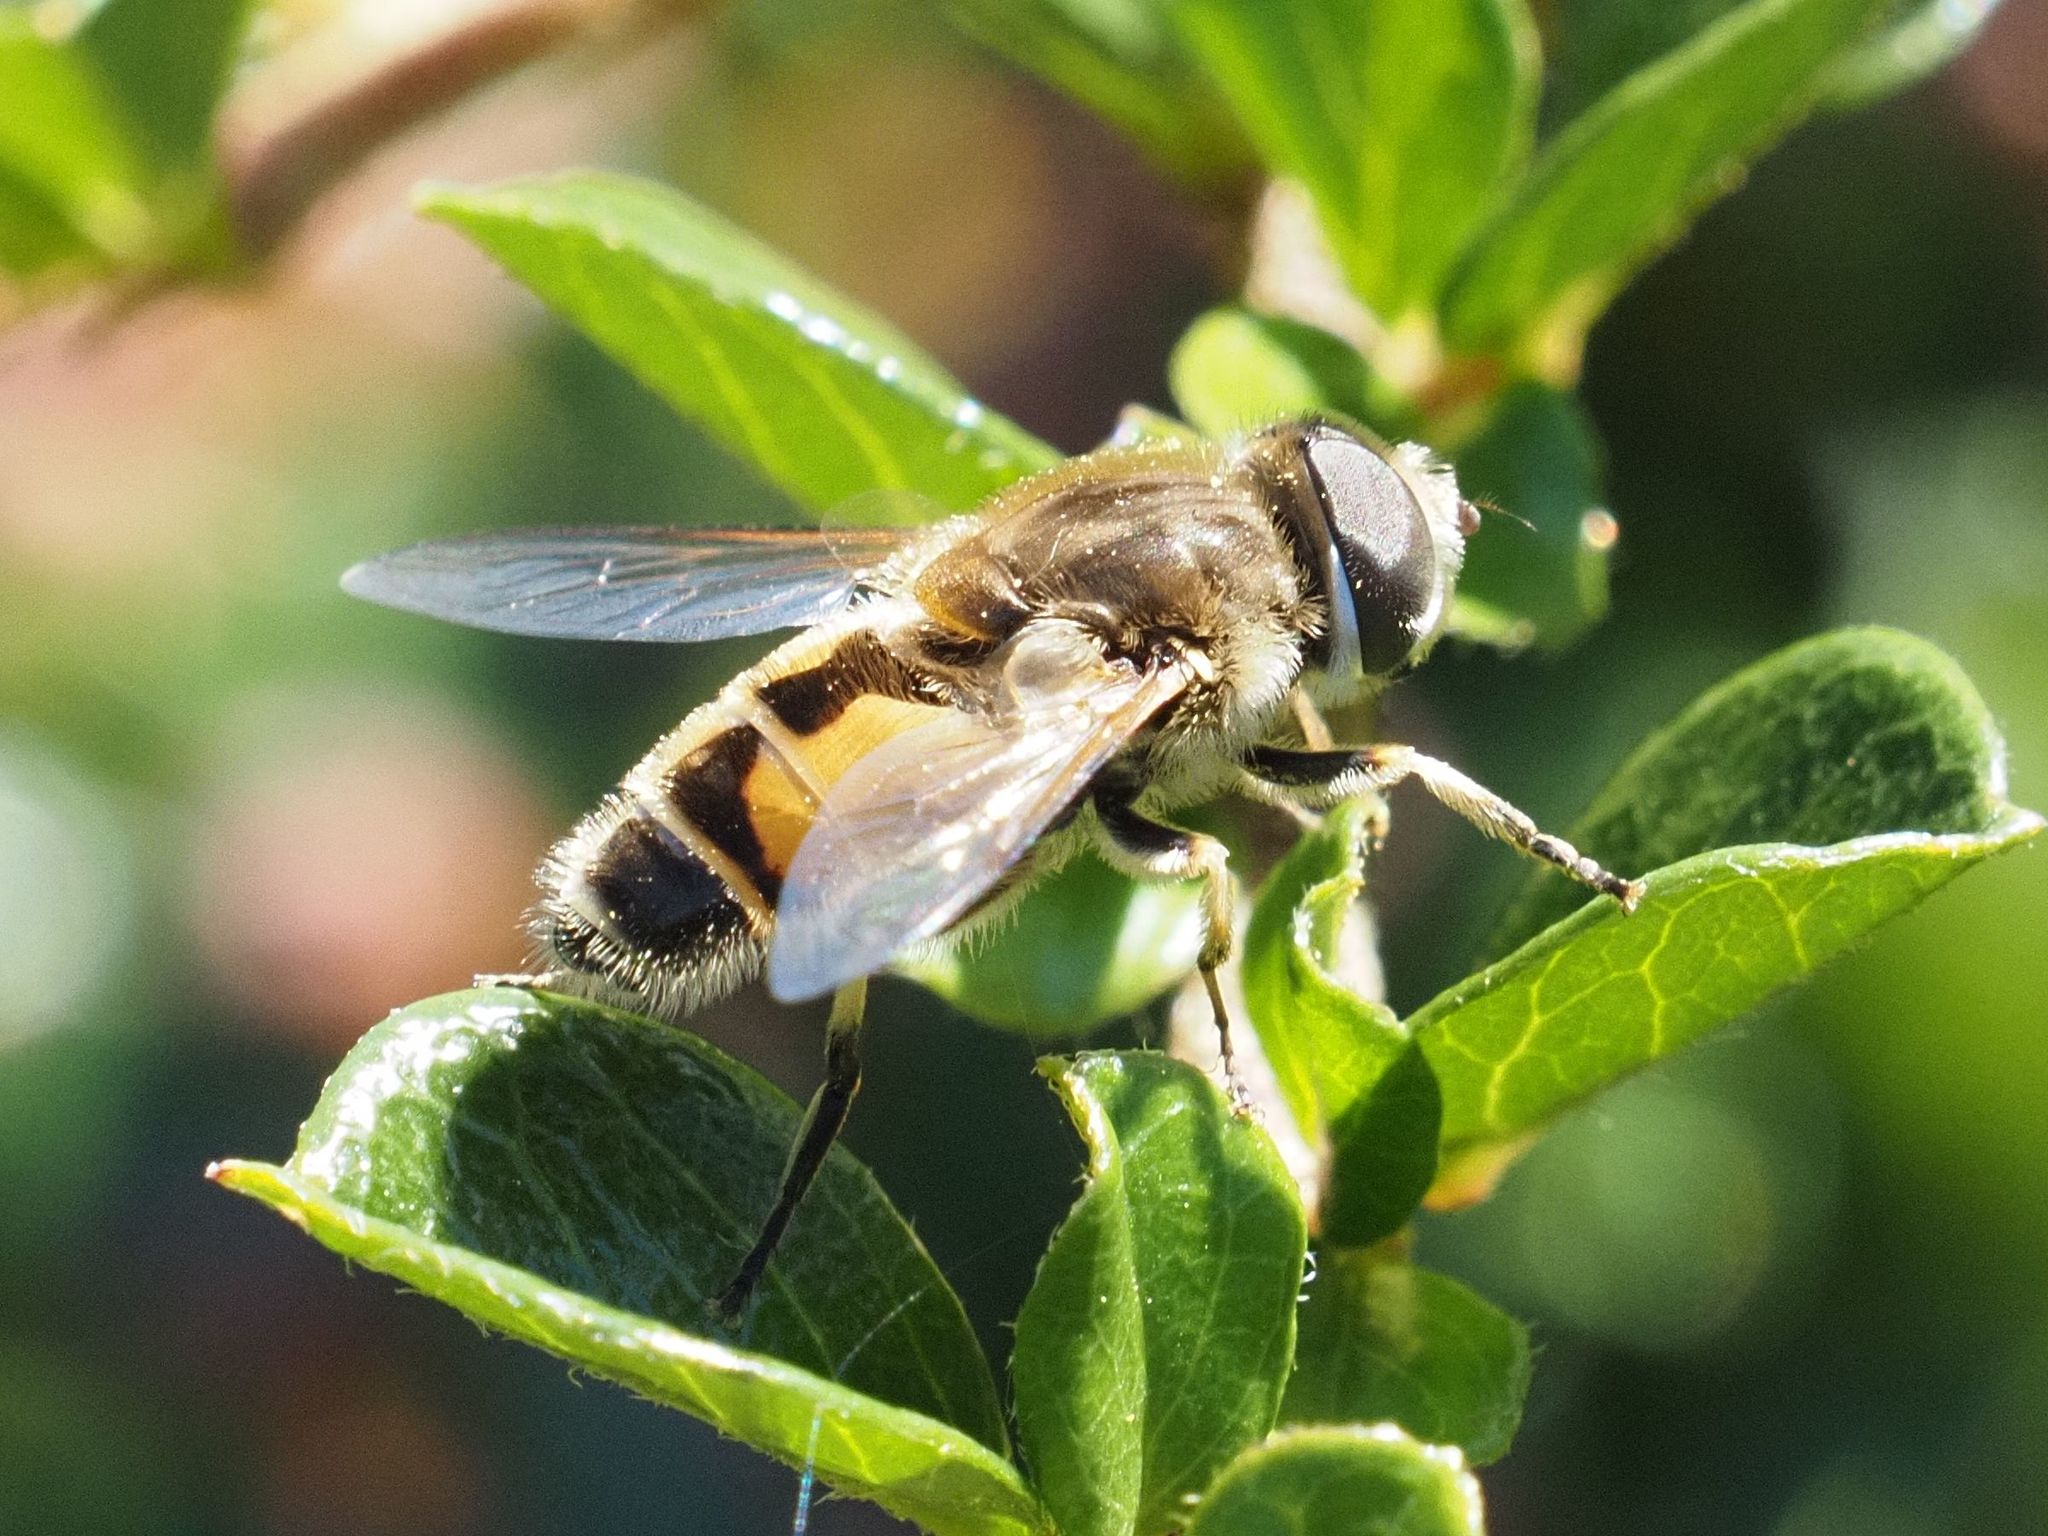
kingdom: Animalia
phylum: Arthropoda
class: Insecta
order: Diptera
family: Syrphidae
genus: Eristalis
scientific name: Eristalis arbustorum
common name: Hover fly
